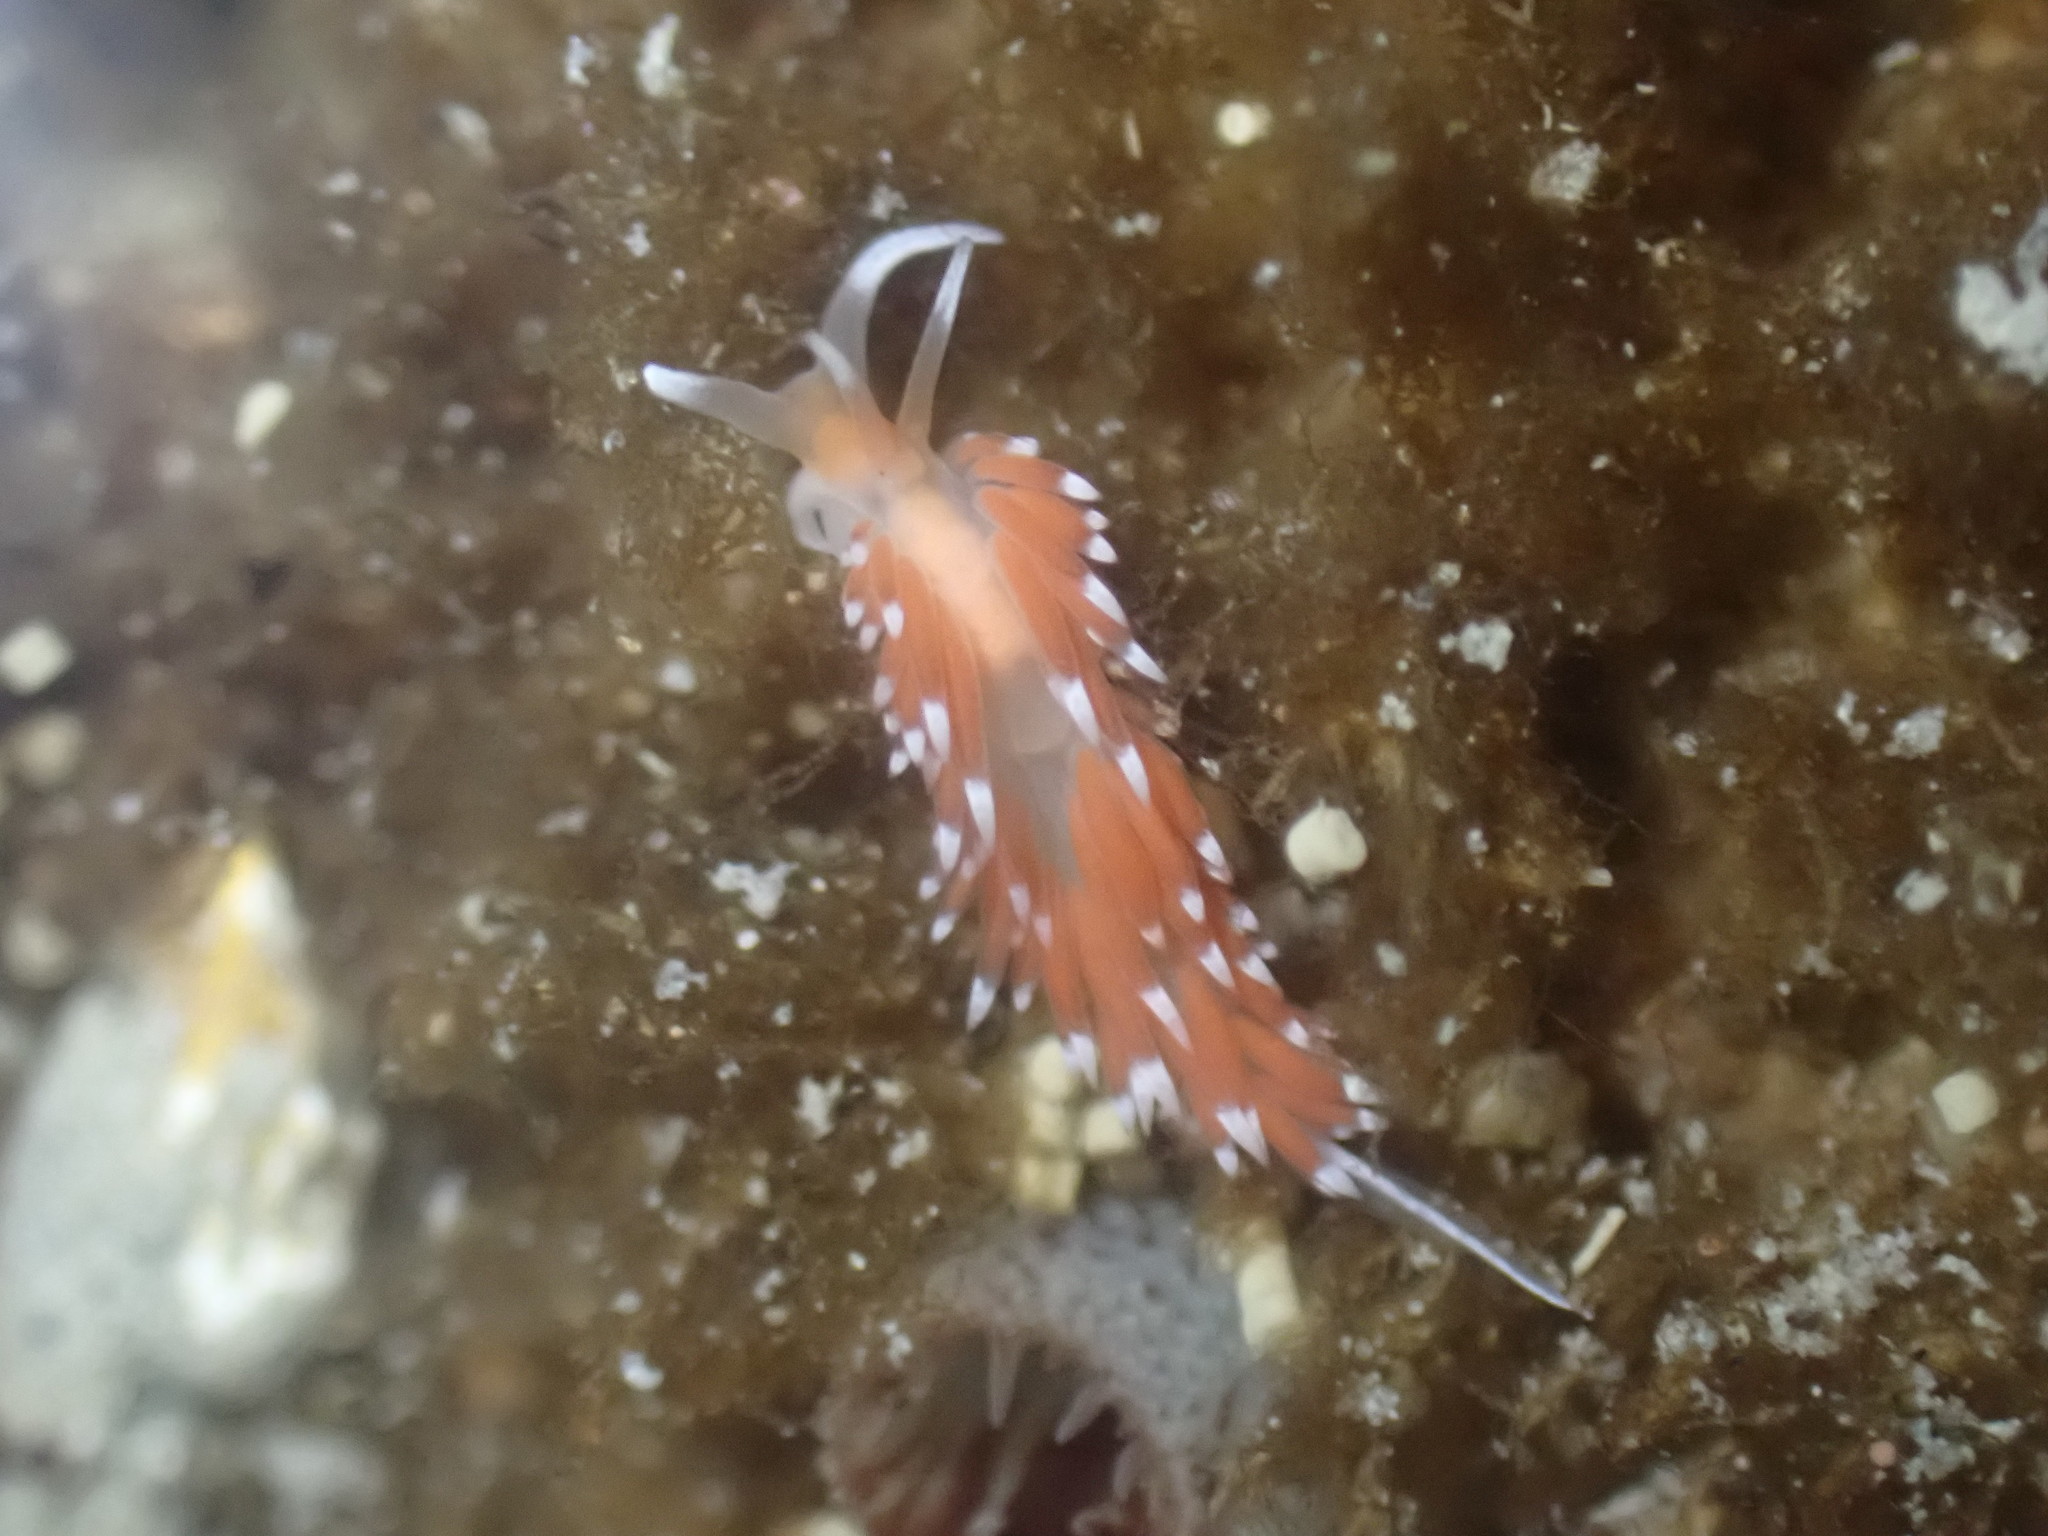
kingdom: Animalia
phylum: Mollusca
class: Gastropoda
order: Nudibranchia
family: Facelinidae
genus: Phidiana
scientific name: Phidiana milleri
